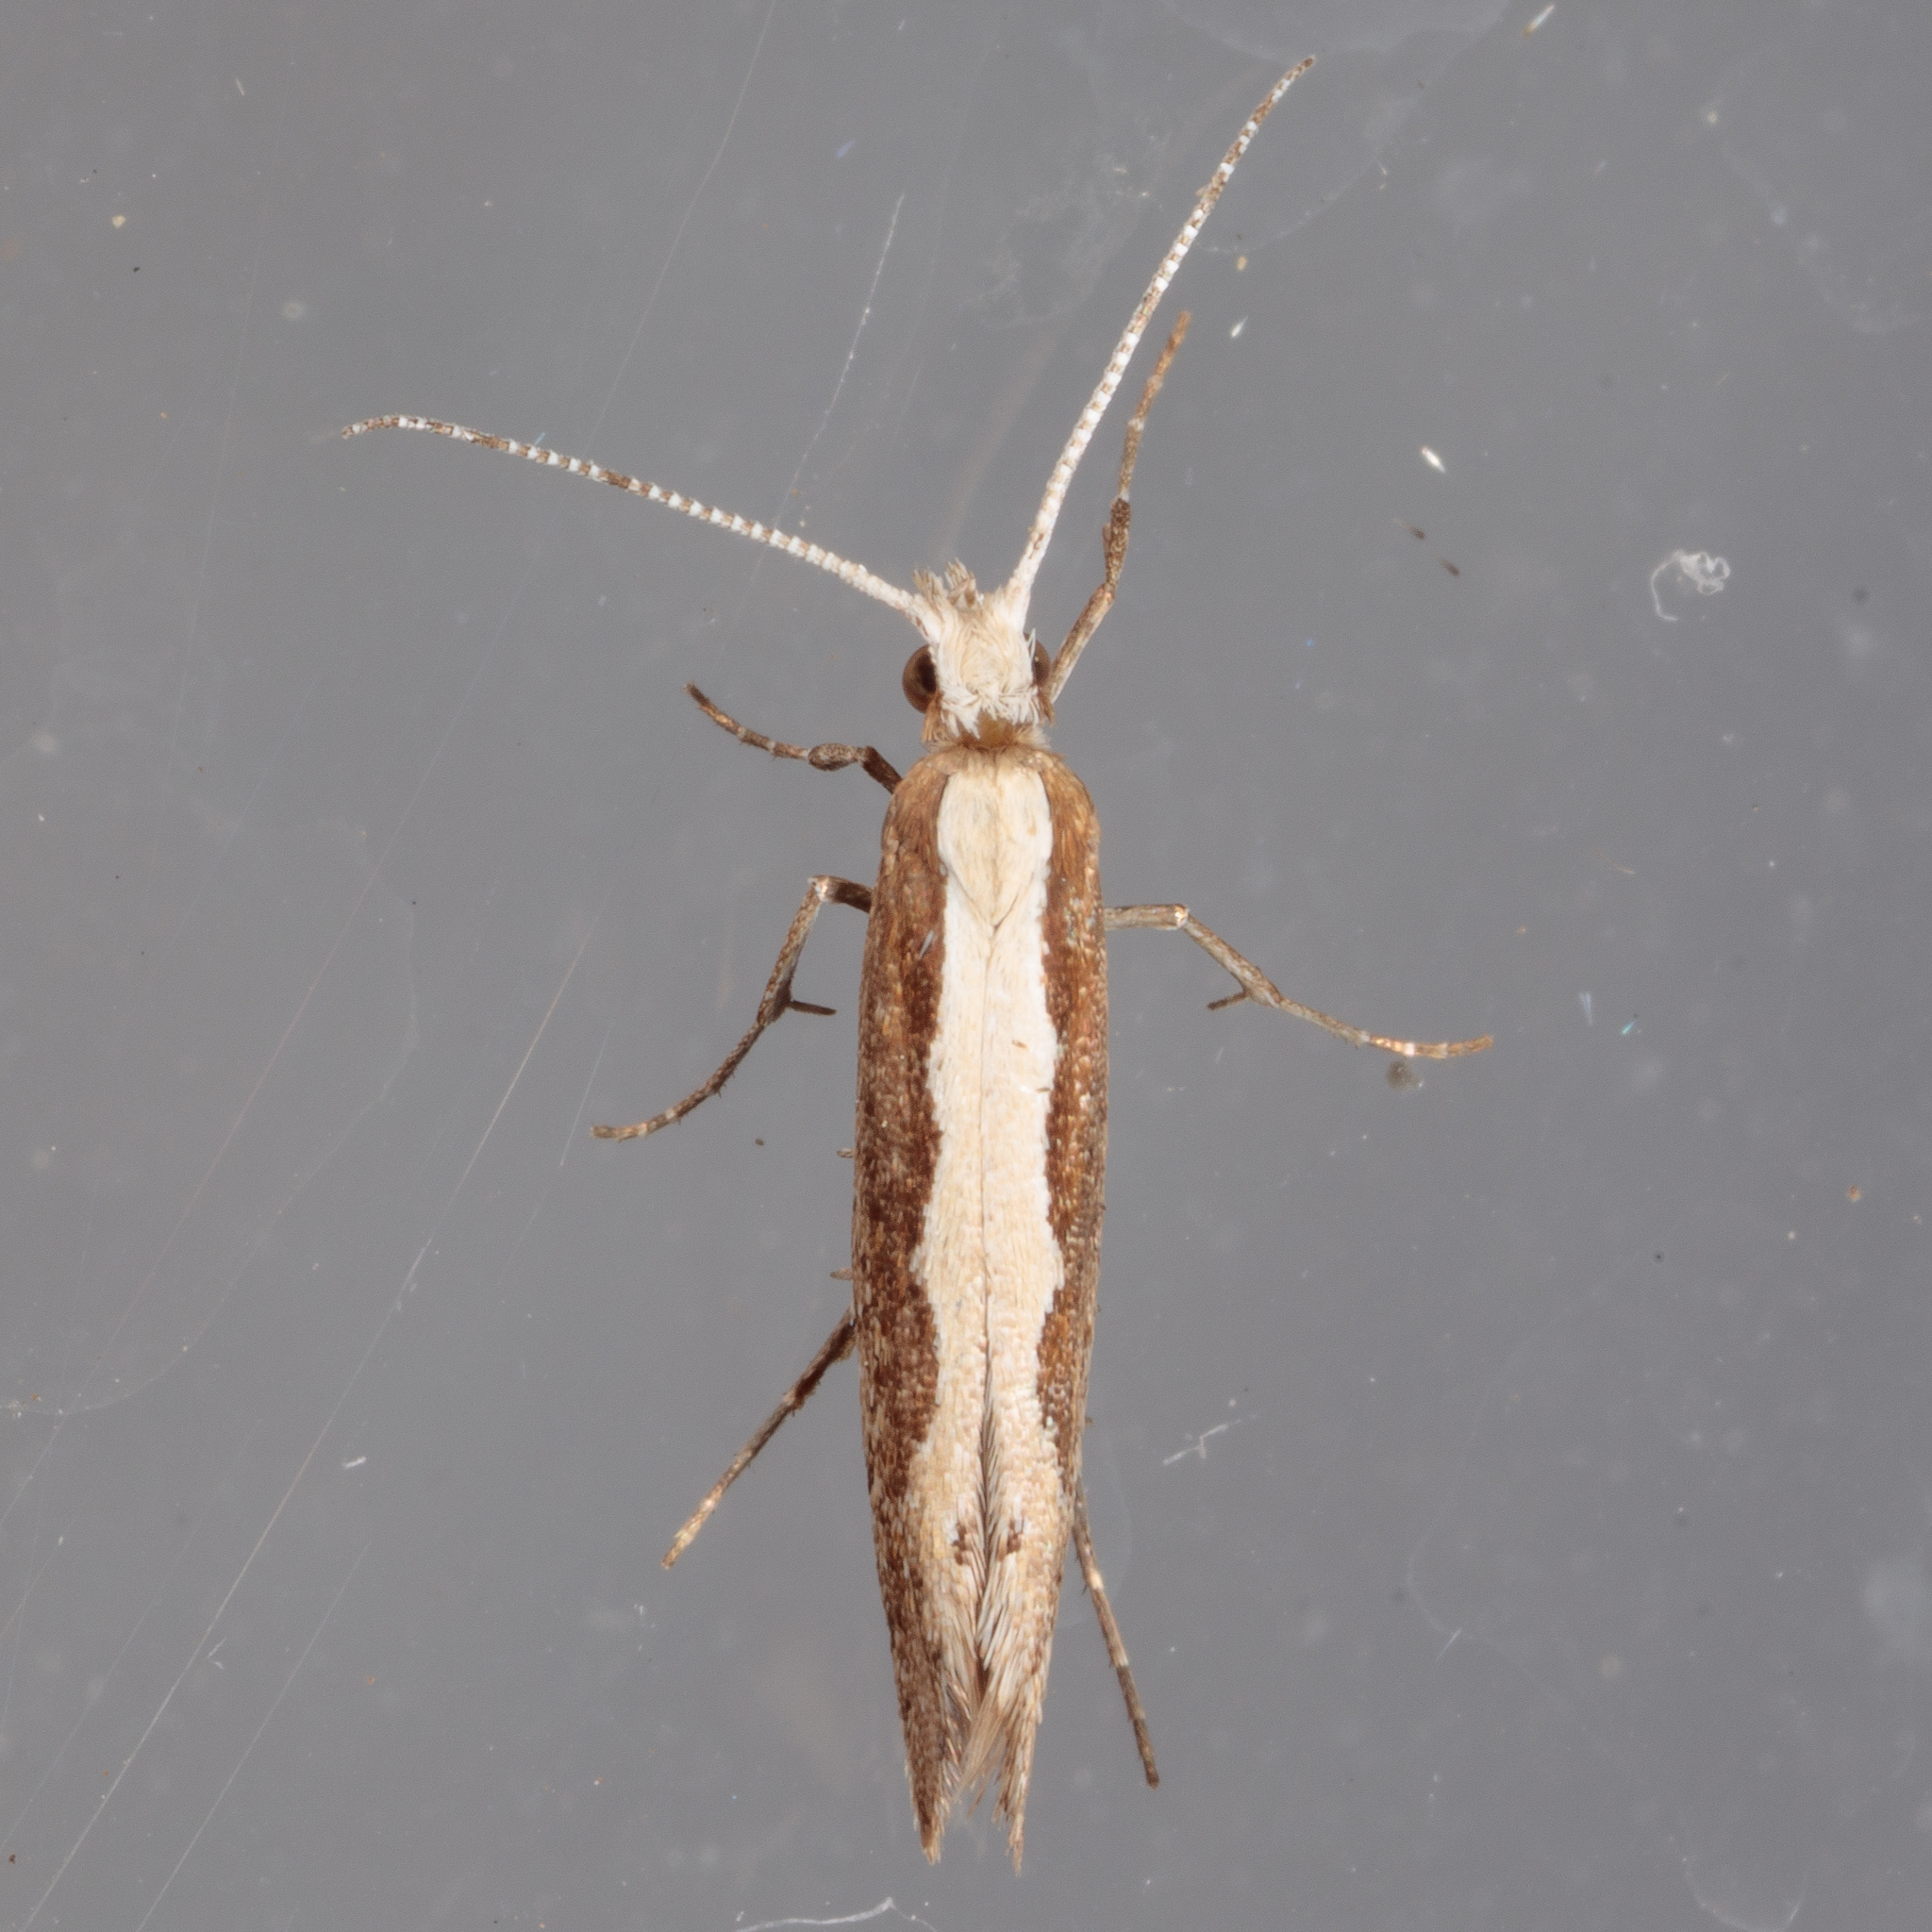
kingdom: Animalia
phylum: Arthropoda
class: Insecta
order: Lepidoptera
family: Plutellidae
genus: Plutella
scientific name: Plutella xylostella
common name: Diamond-back moth
